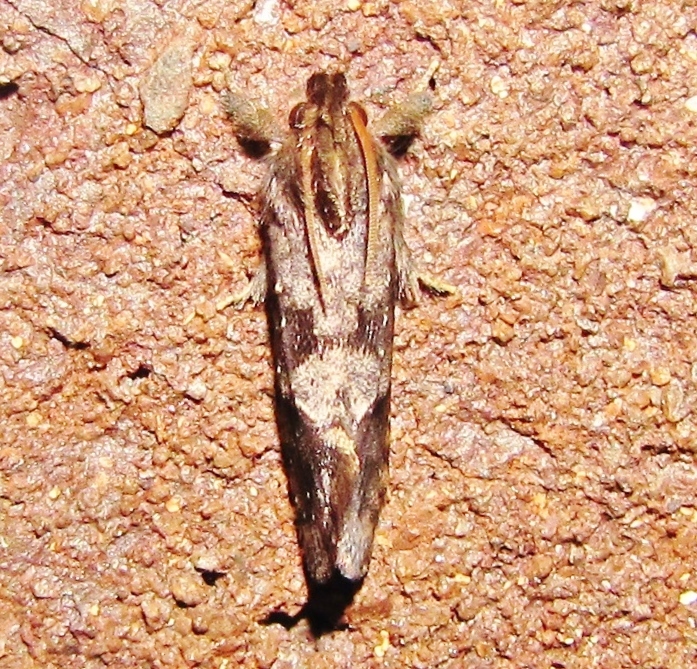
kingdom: Animalia
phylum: Arthropoda
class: Insecta
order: Lepidoptera
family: Tineidae
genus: Acrolophus
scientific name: Acrolophus texanella
